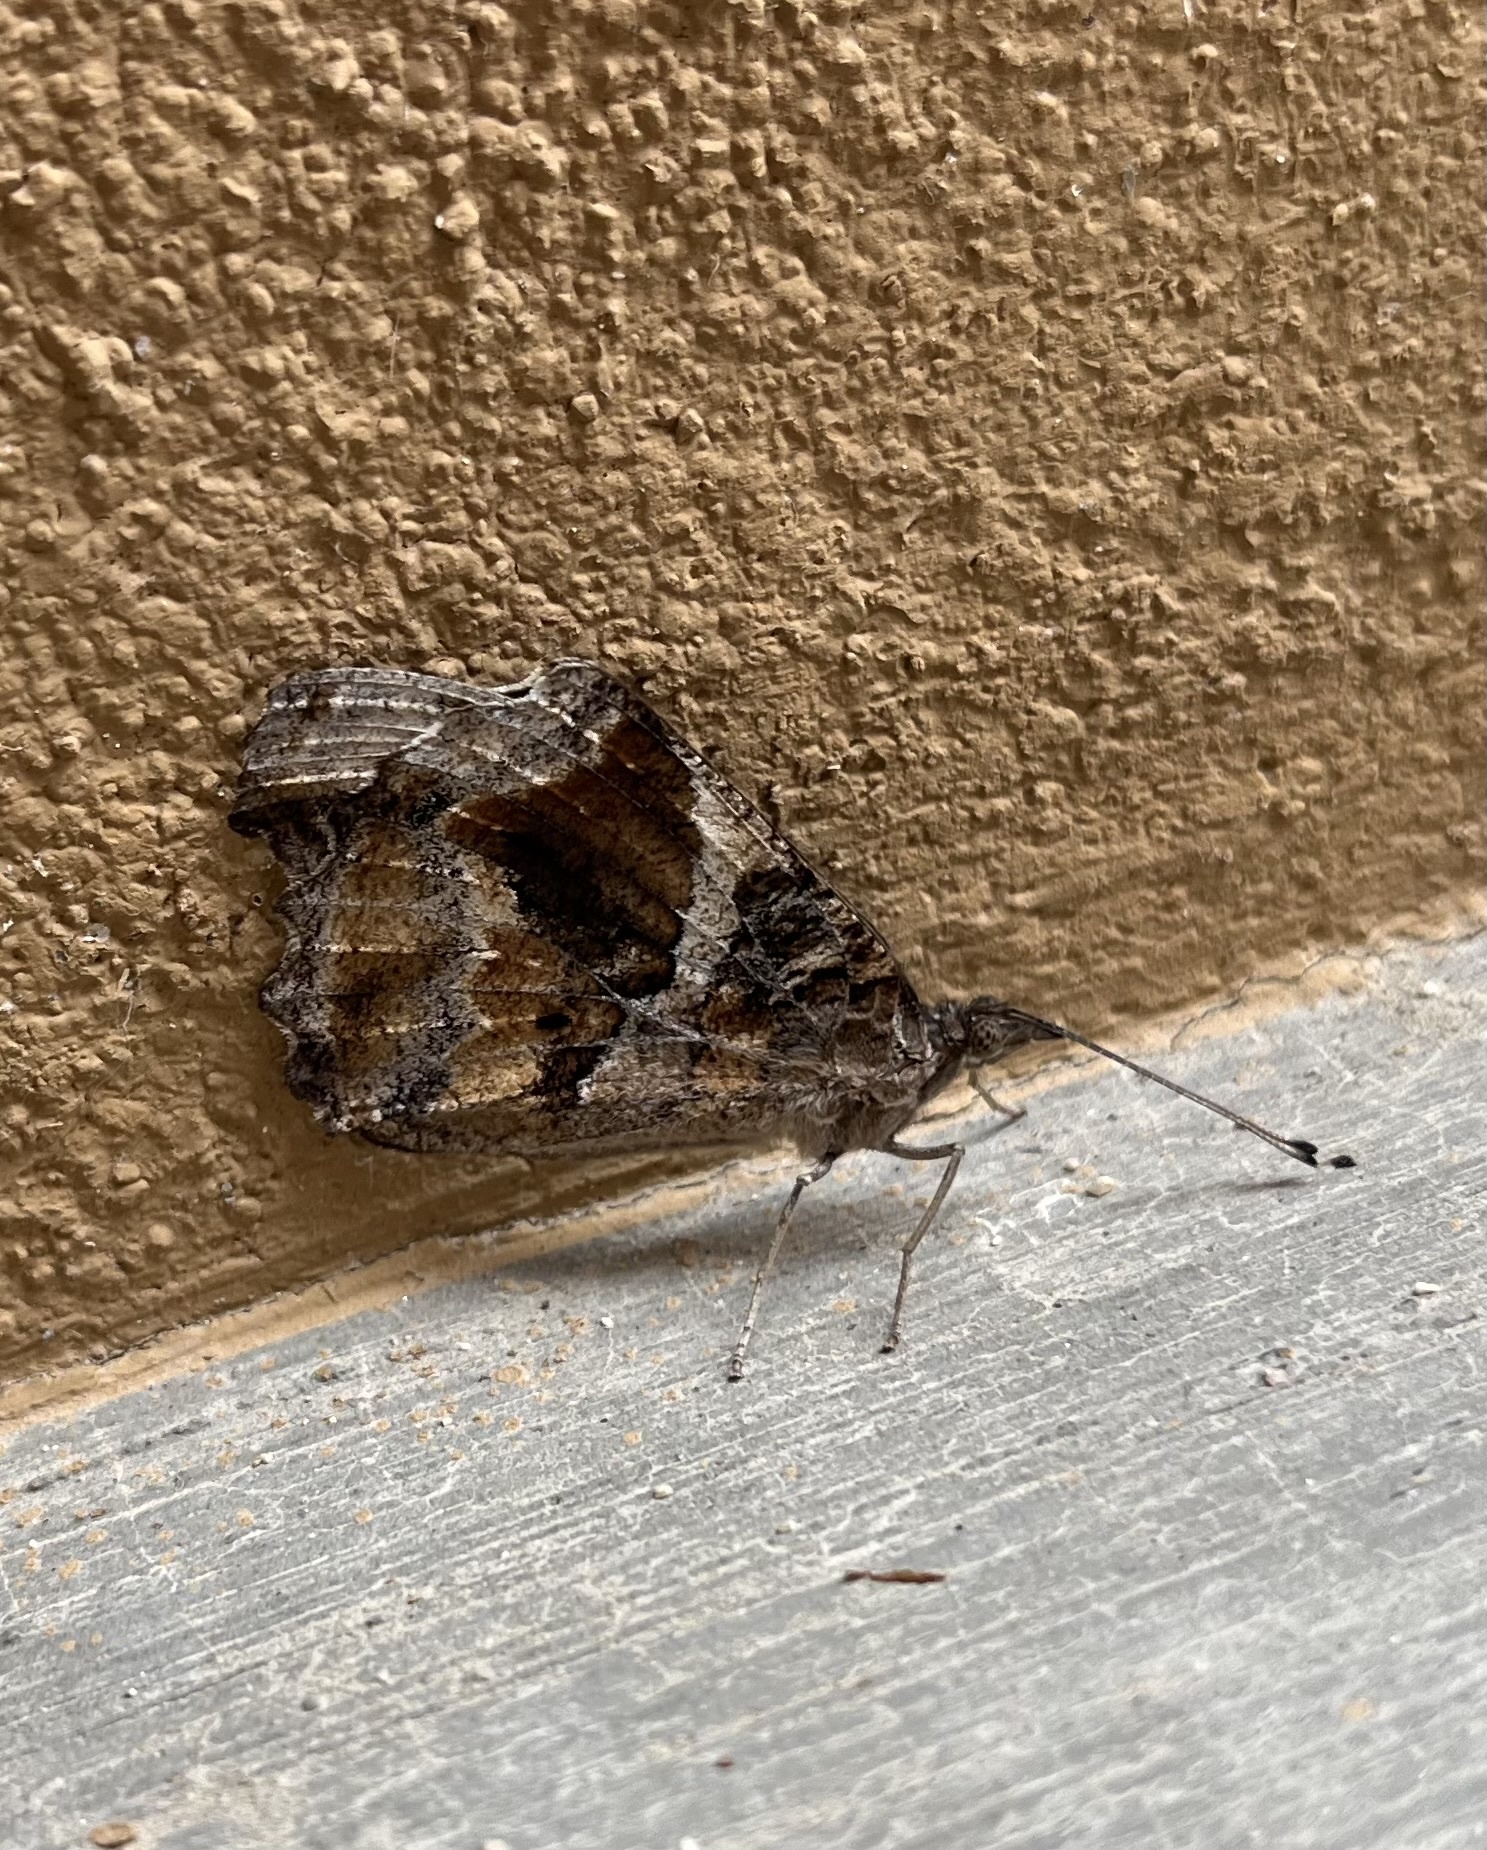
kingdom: Animalia
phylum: Arthropoda
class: Insecta
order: Lepidoptera
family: Nymphalidae
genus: Myscelia
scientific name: Myscelia cyananthe
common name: Blackened bluewing
